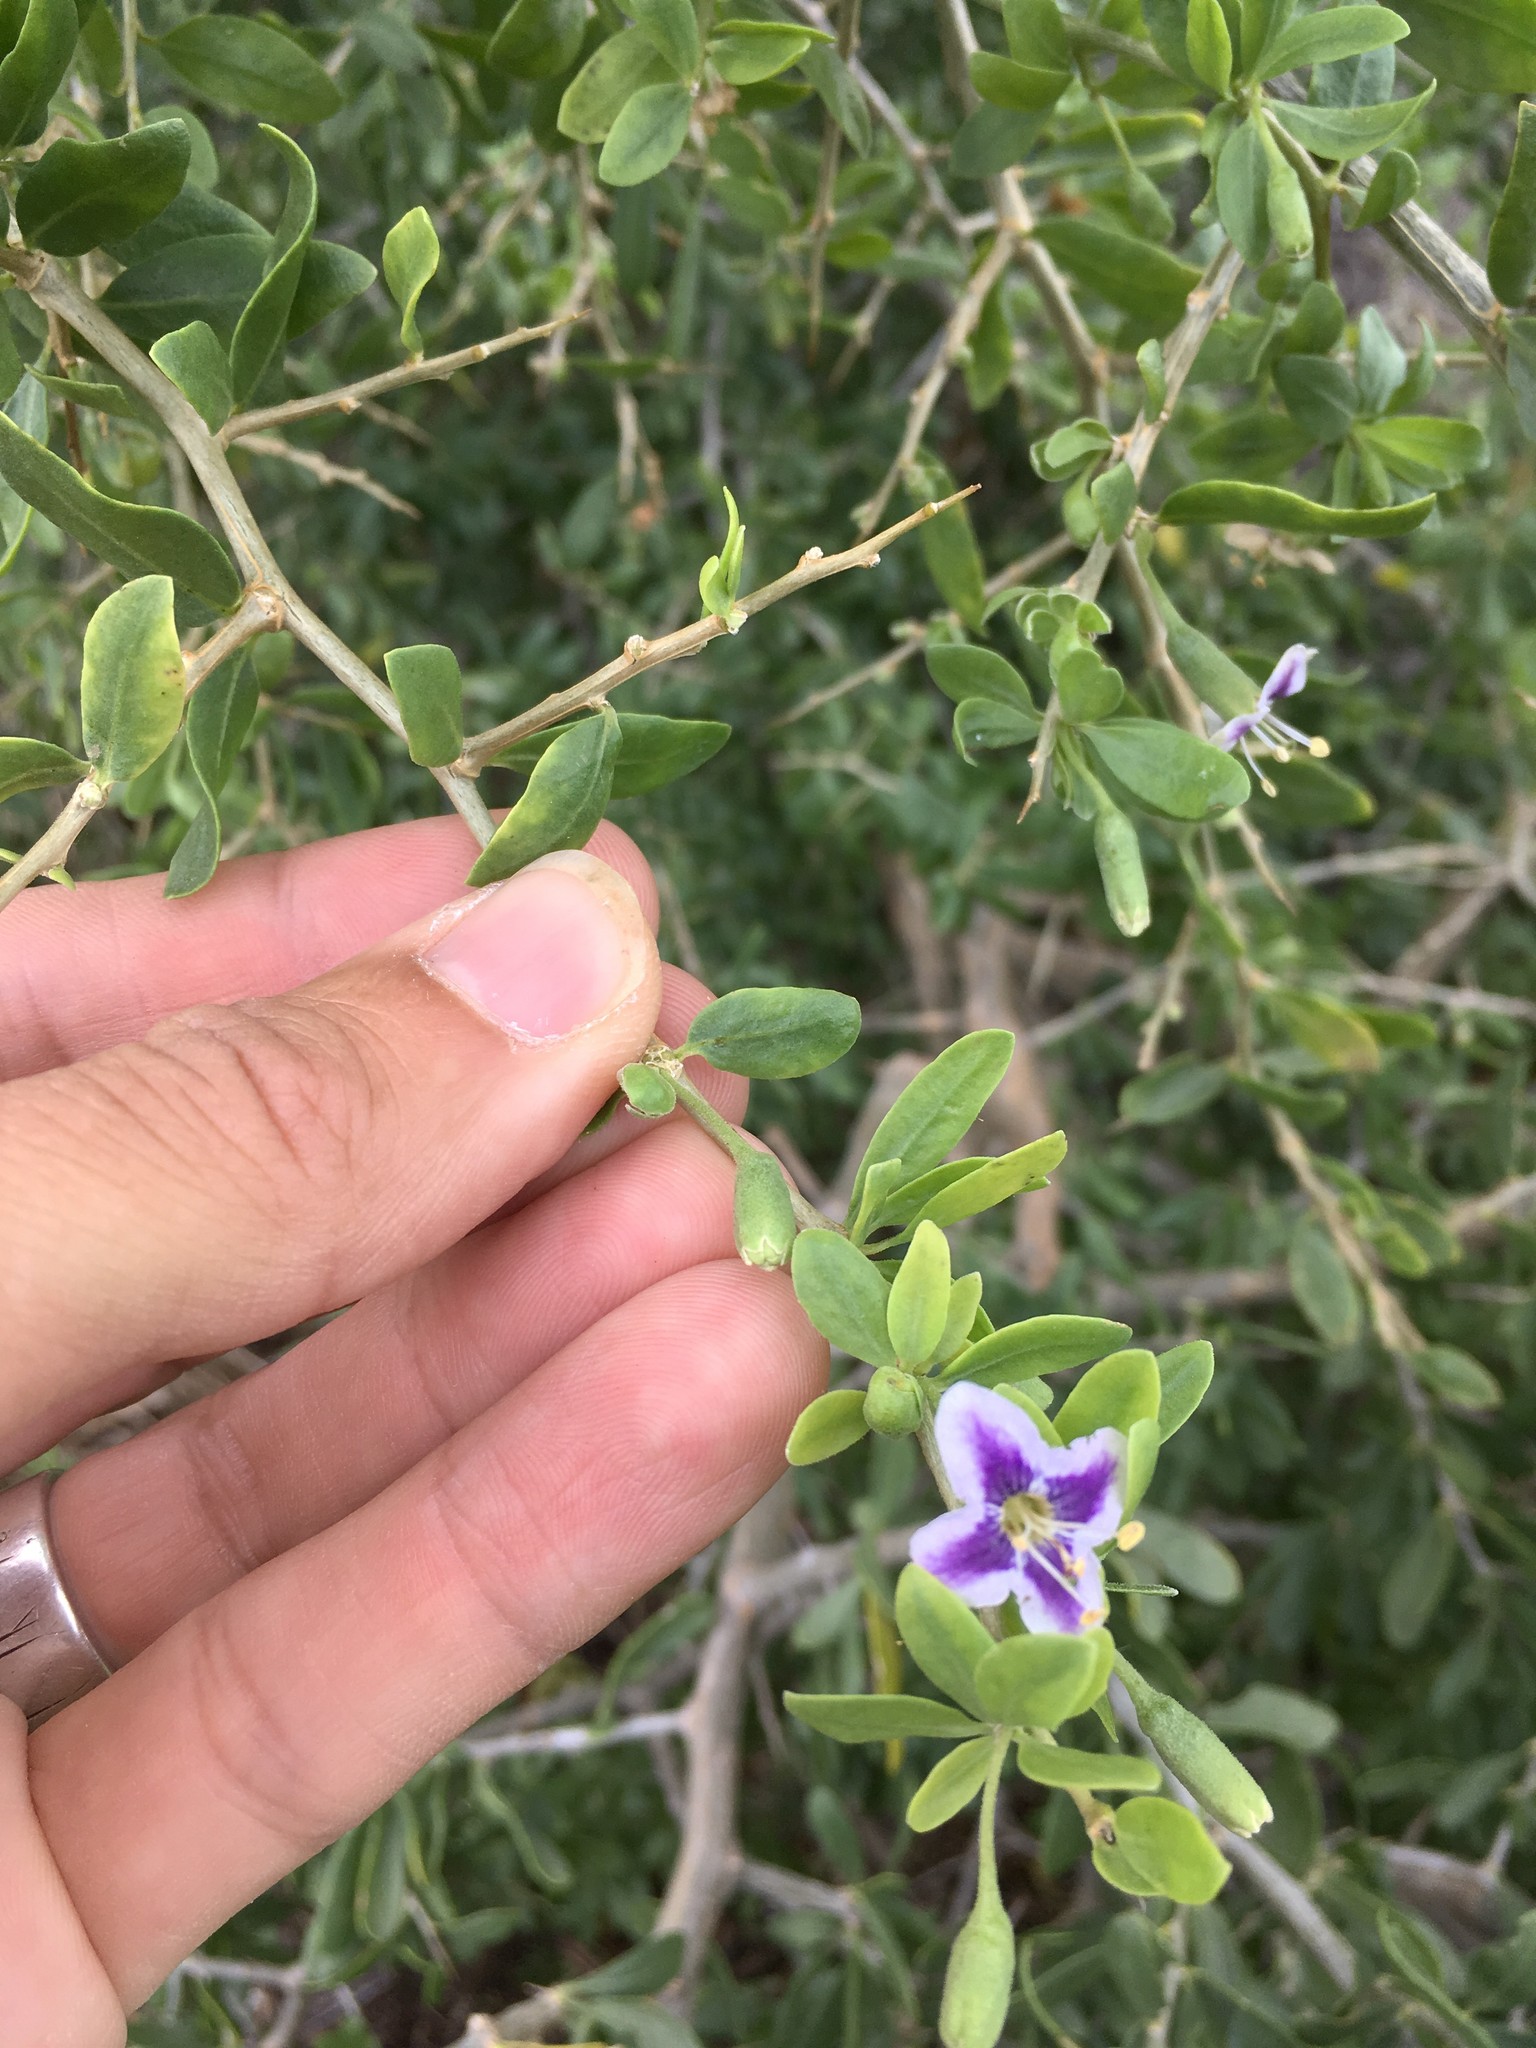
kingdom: Plantae
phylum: Tracheophyta
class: Magnoliopsida
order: Solanales
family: Solanaceae
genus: Lycium
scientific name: Lycium ferocissimum
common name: African boxthorn
